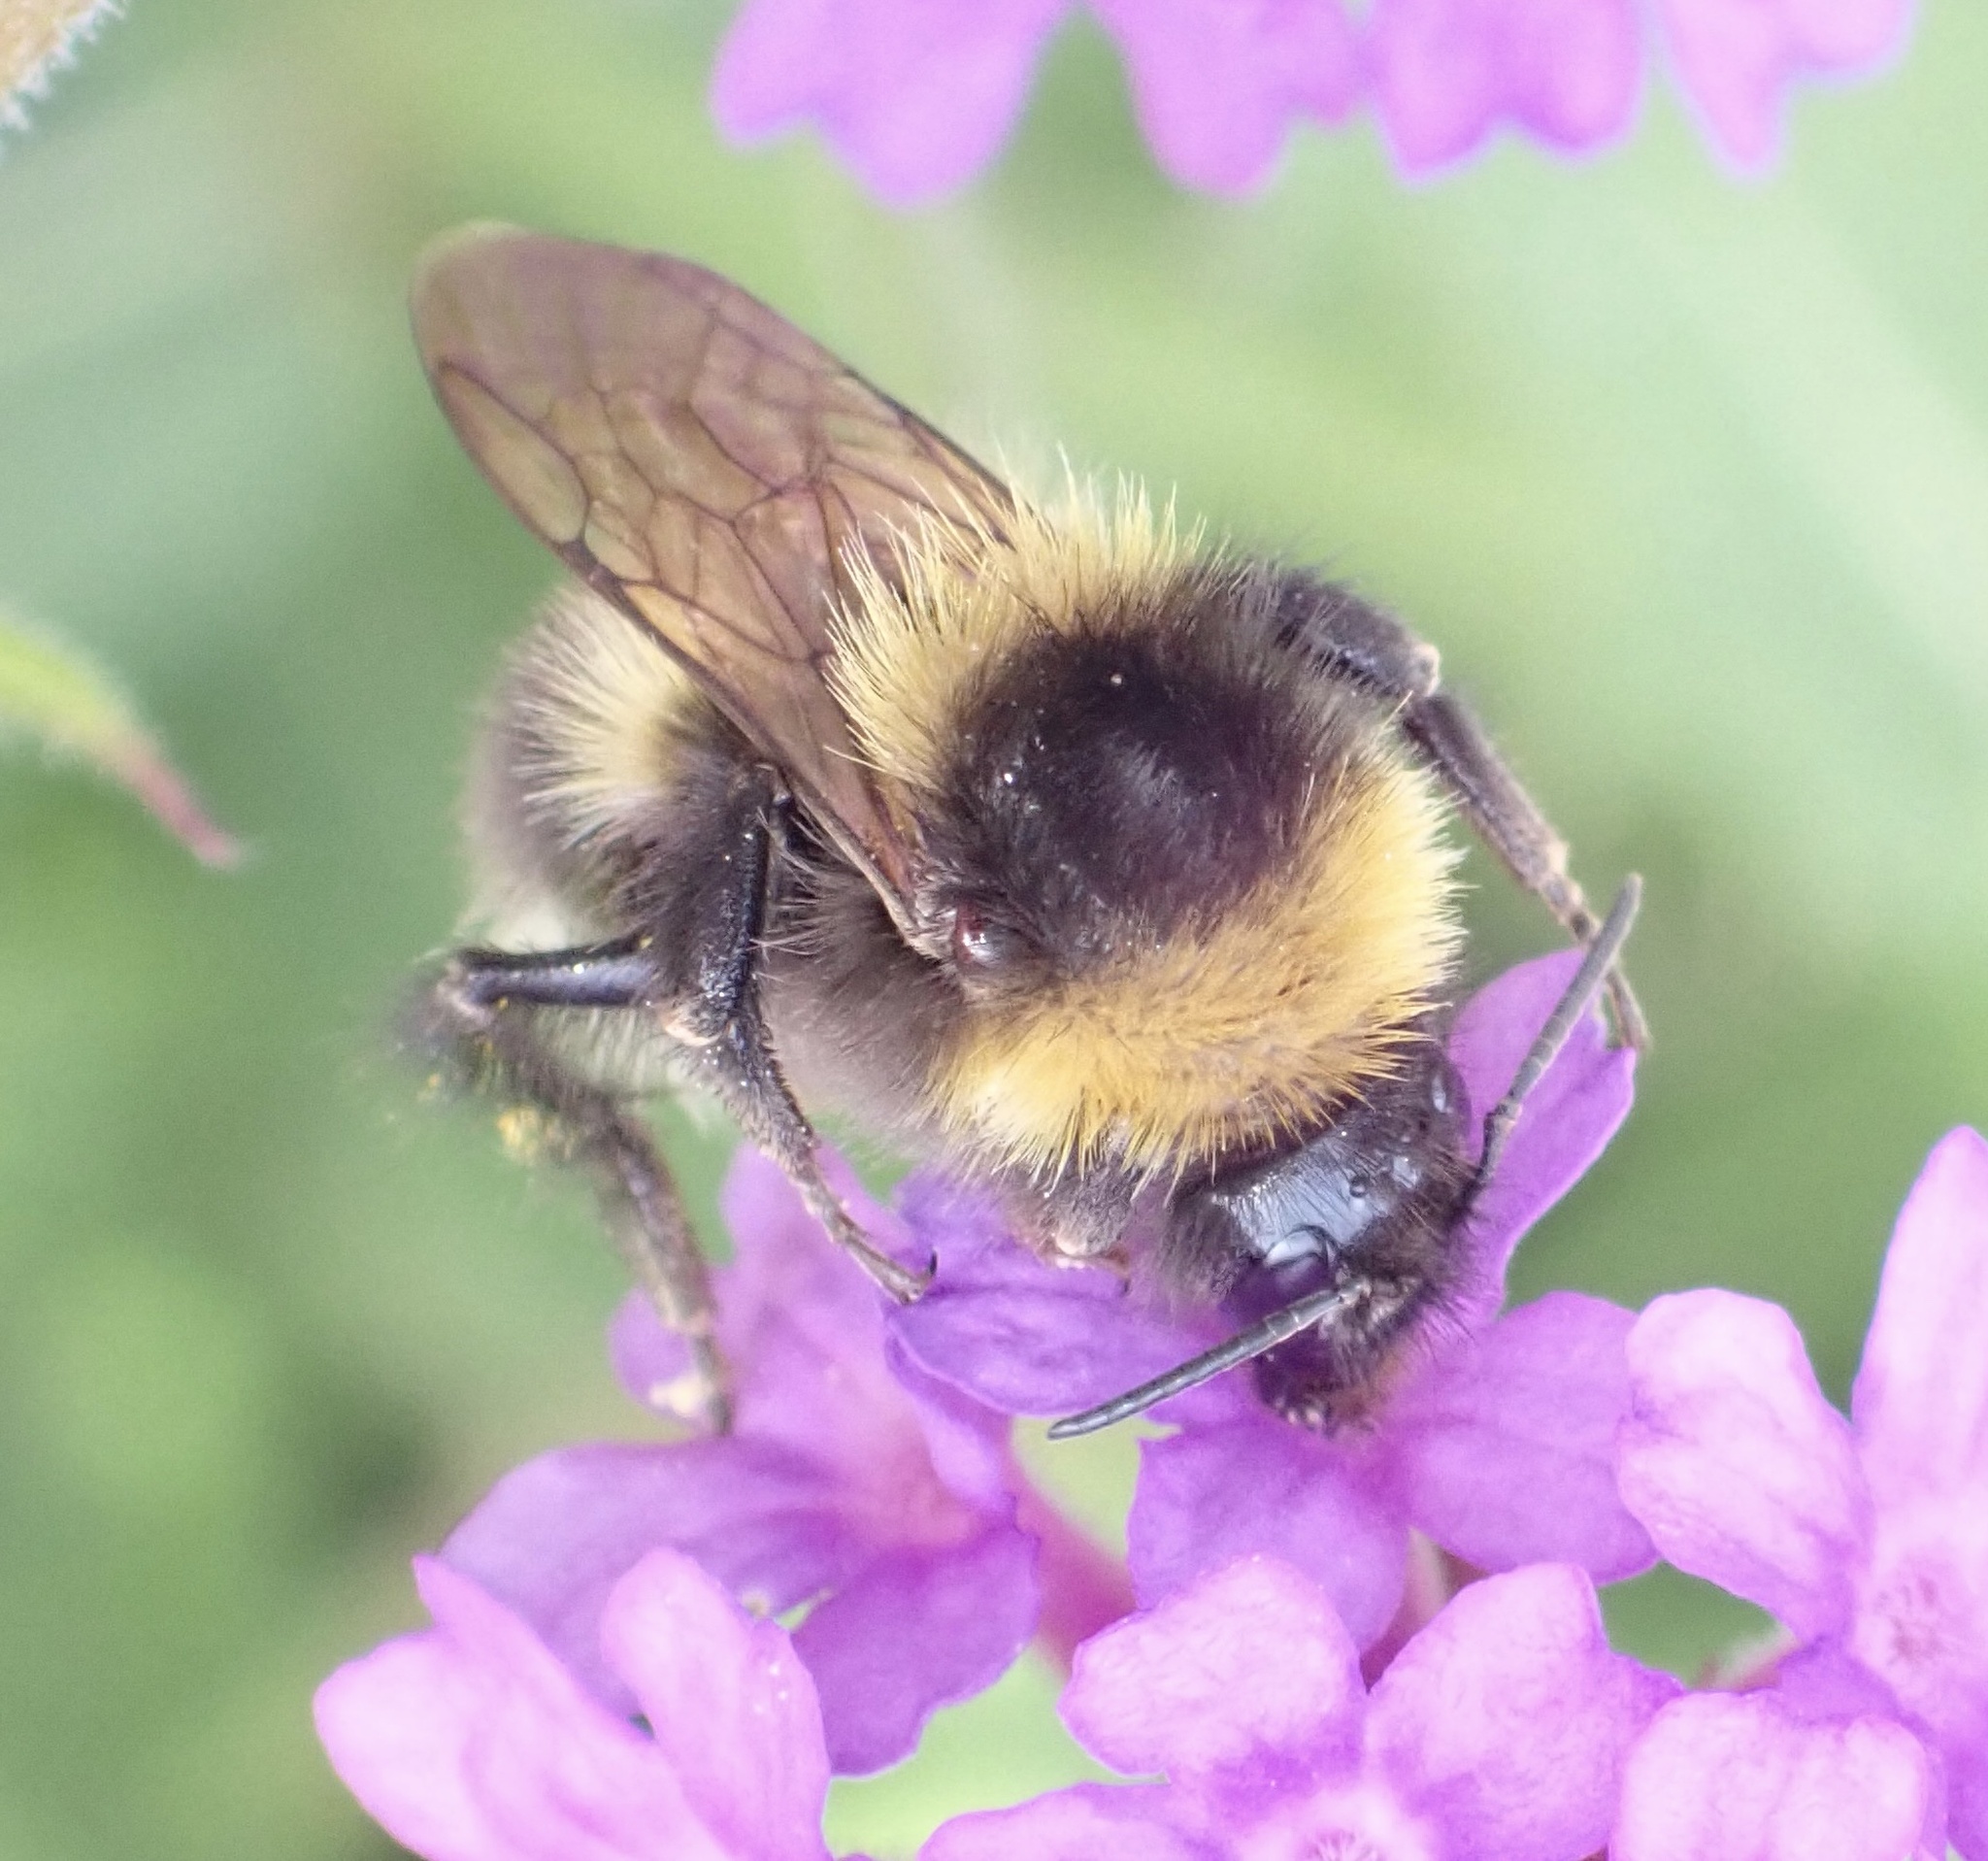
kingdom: Animalia
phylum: Arthropoda
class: Insecta
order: Hymenoptera
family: Apidae
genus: Bombus
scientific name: Bombus hortorum
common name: Garden bumblebee
